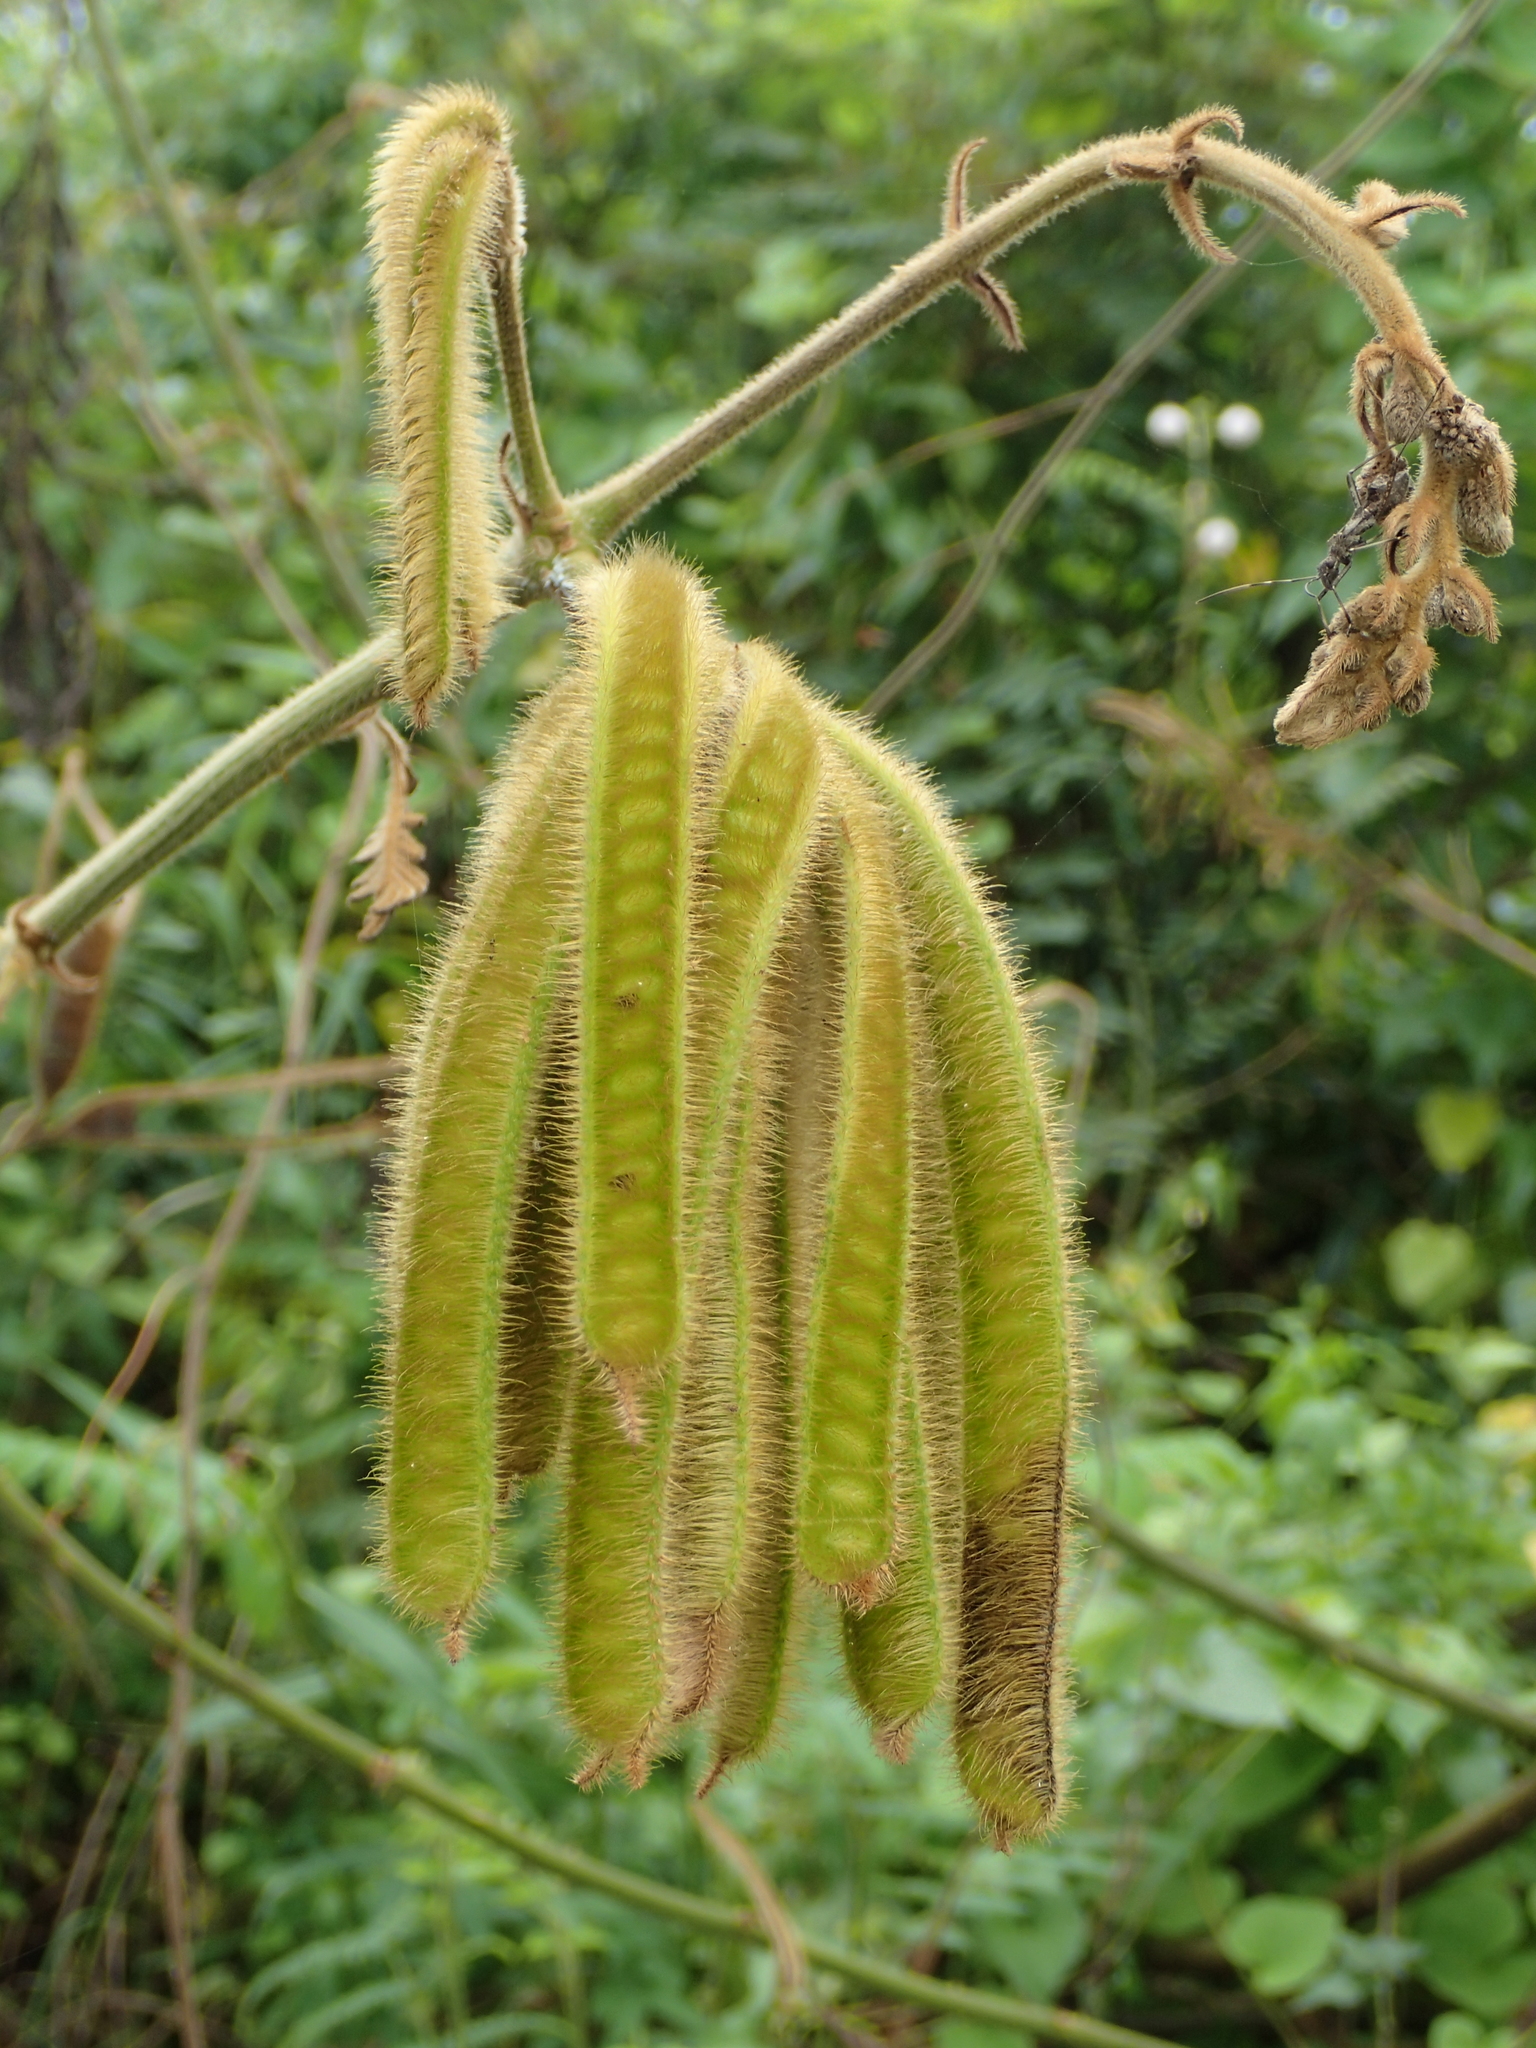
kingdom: Plantae
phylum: Tracheophyta
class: Magnoliopsida
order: Fabales
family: Fabaceae
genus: Mimosa
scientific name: Mimosa pigra
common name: Black mimosa
